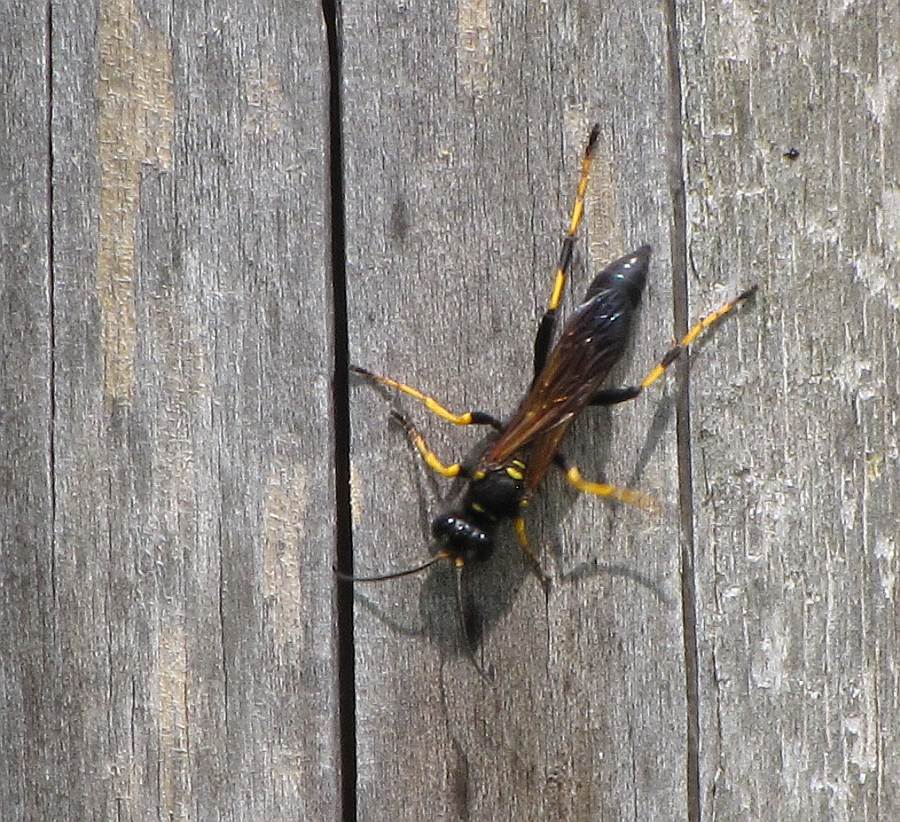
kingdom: Animalia
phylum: Arthropoda
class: Insecta
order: Hymenoptera
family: Sphecidae
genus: Sceliphron
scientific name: Sceliphron caementarium
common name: Mud dauber
